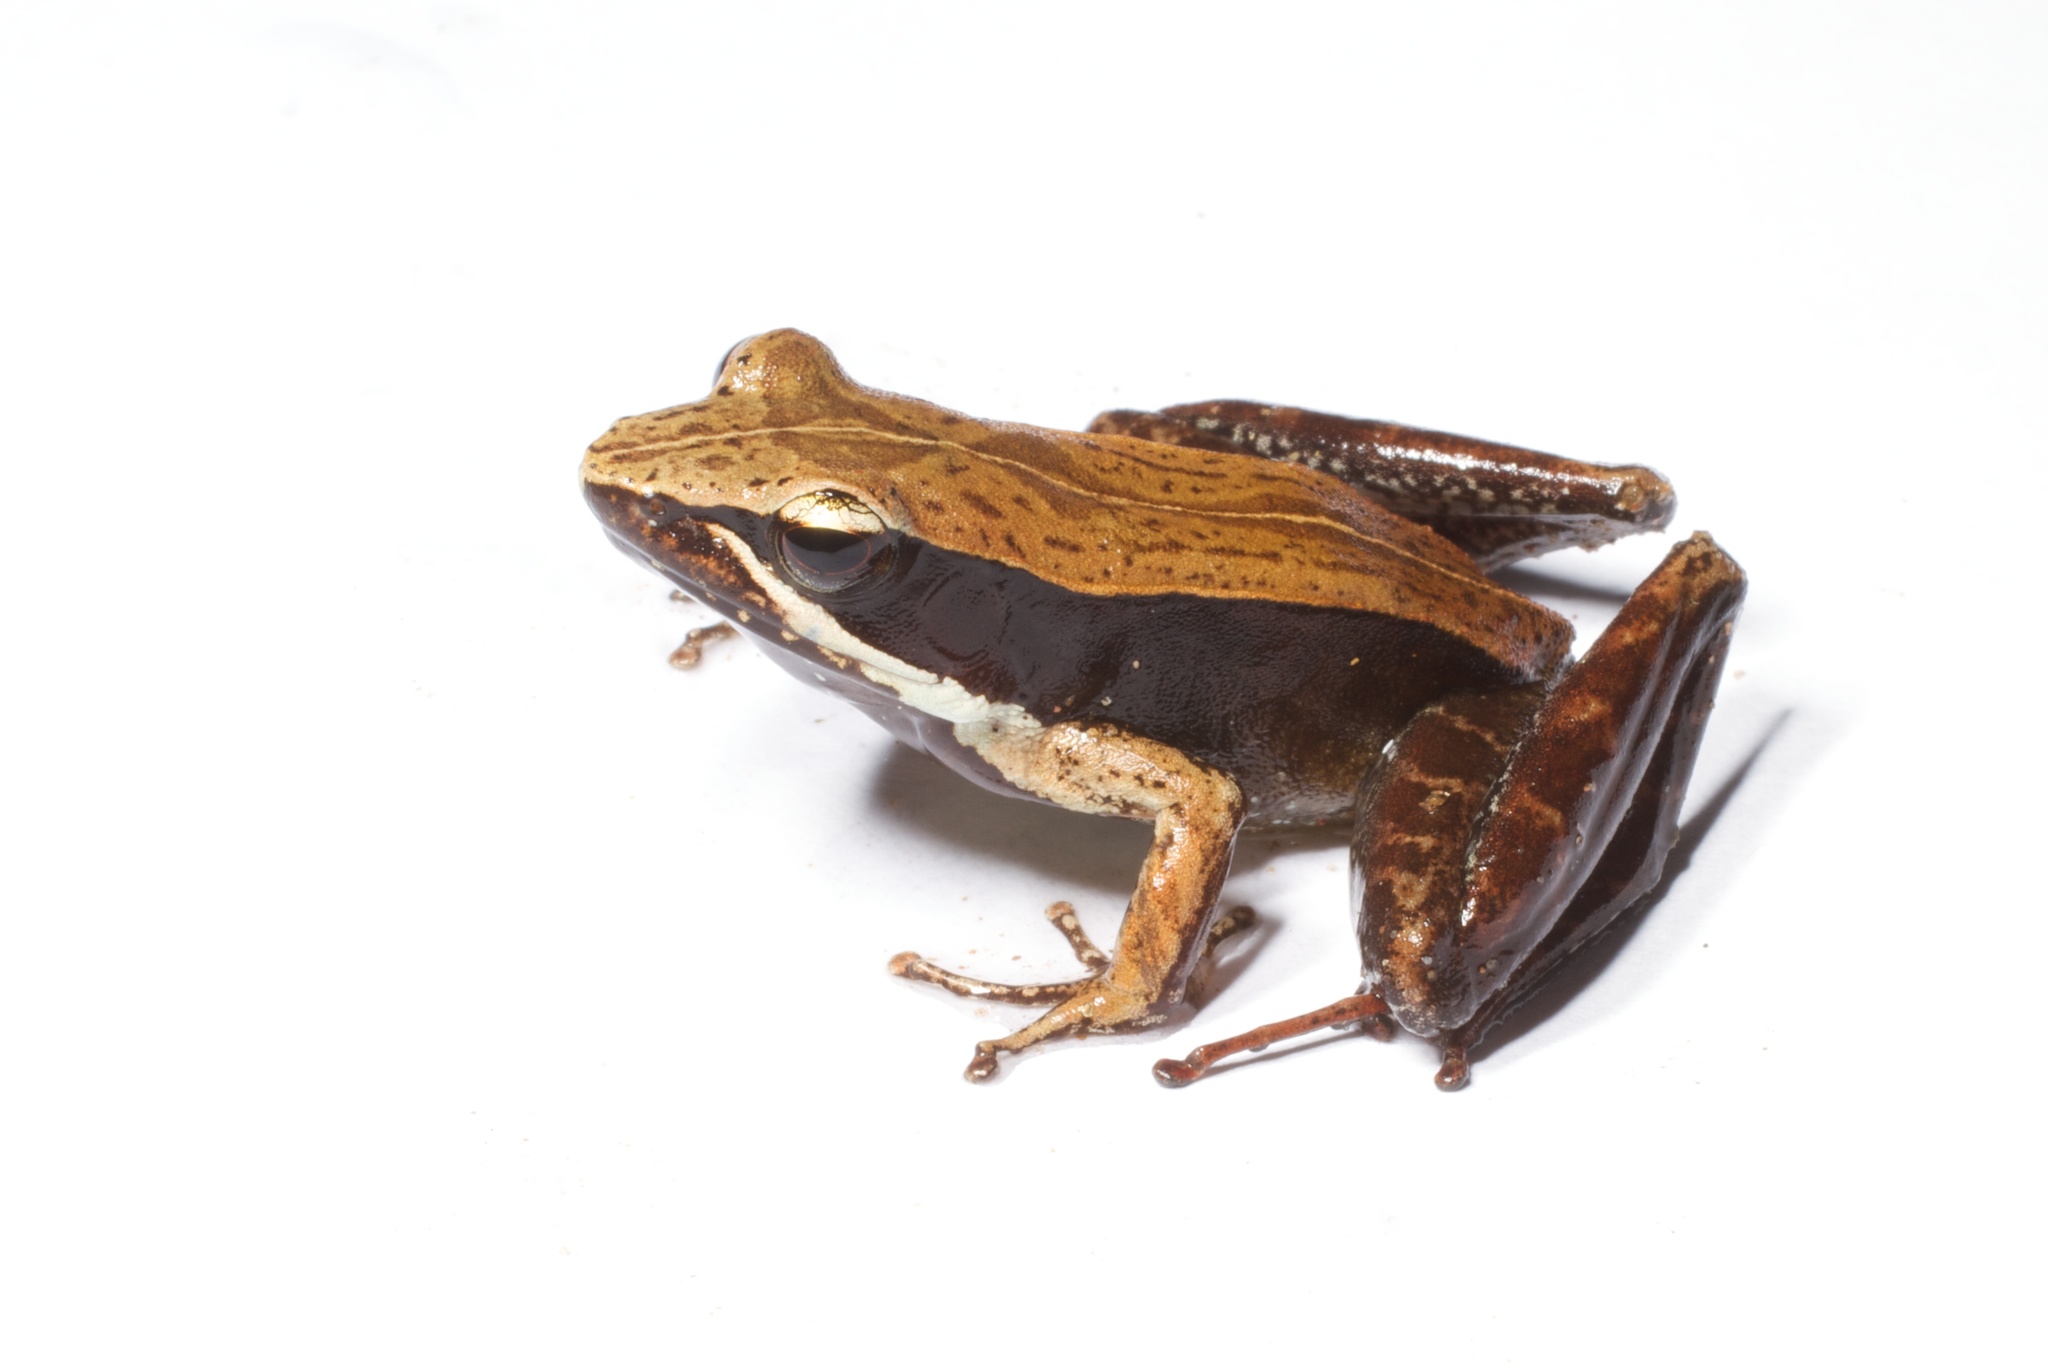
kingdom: Animalia
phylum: Chordata
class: Amphibia
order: Anura
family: Mantellidae
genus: Mantidactylus
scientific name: Mantidactylus opiparis
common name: Central madagascar frog
